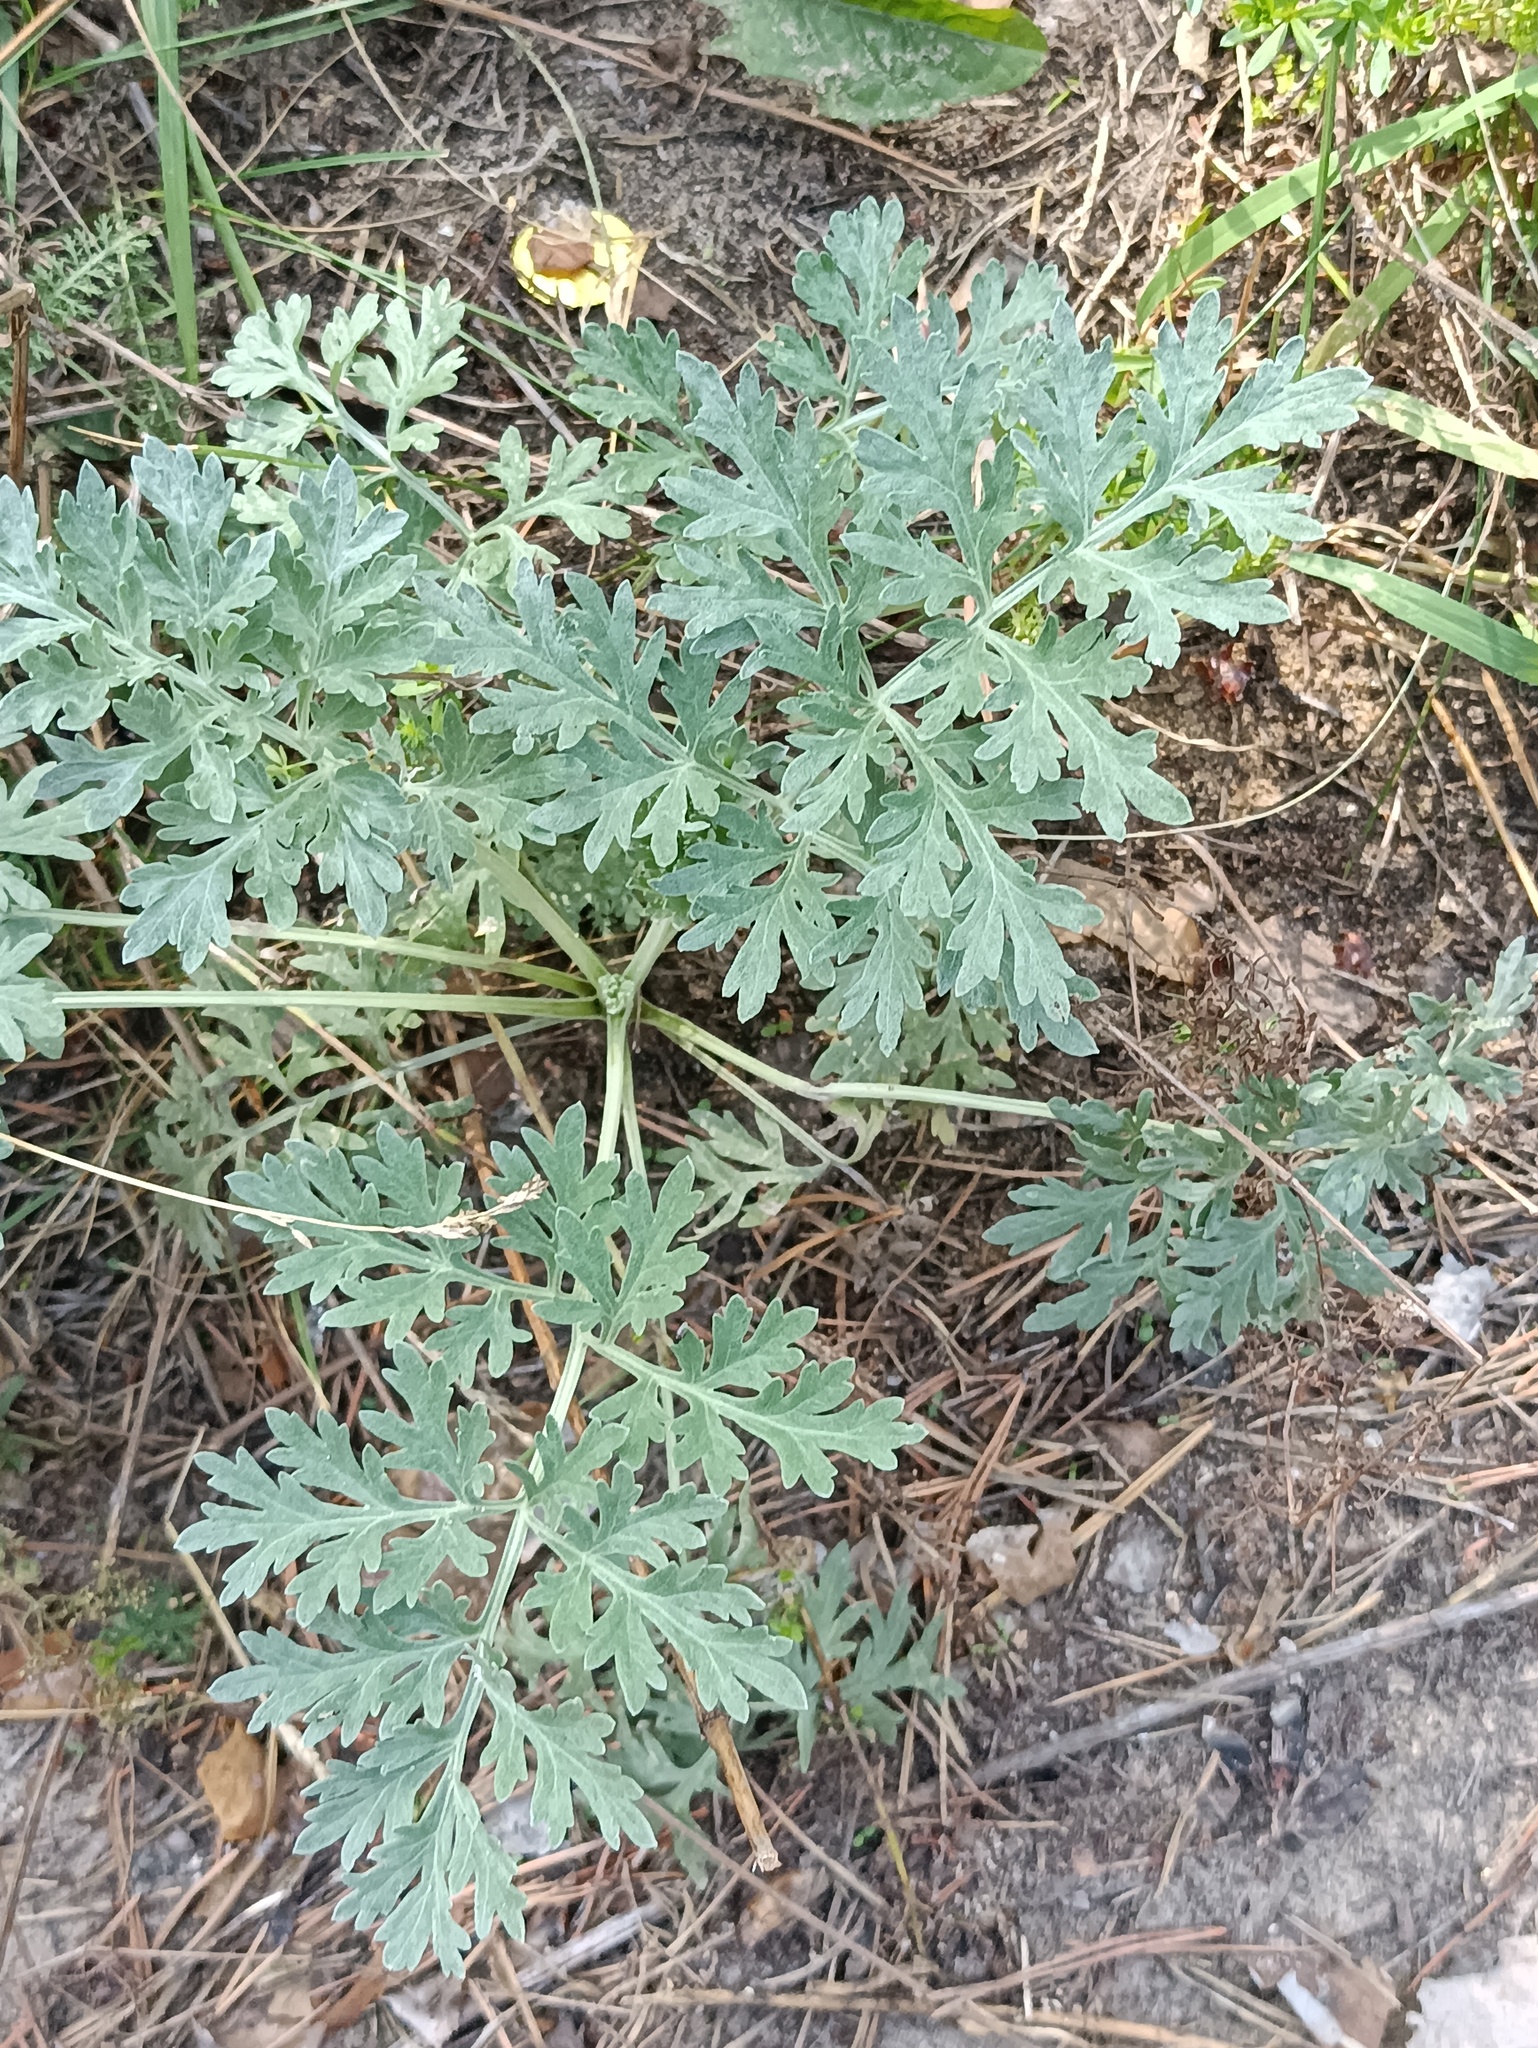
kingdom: Plantae
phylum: Tracheophyta
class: Magnoliopsida
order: Asterales
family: Asteraceae
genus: Artemisia
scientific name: Artemisia absinthium
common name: Wormwood
